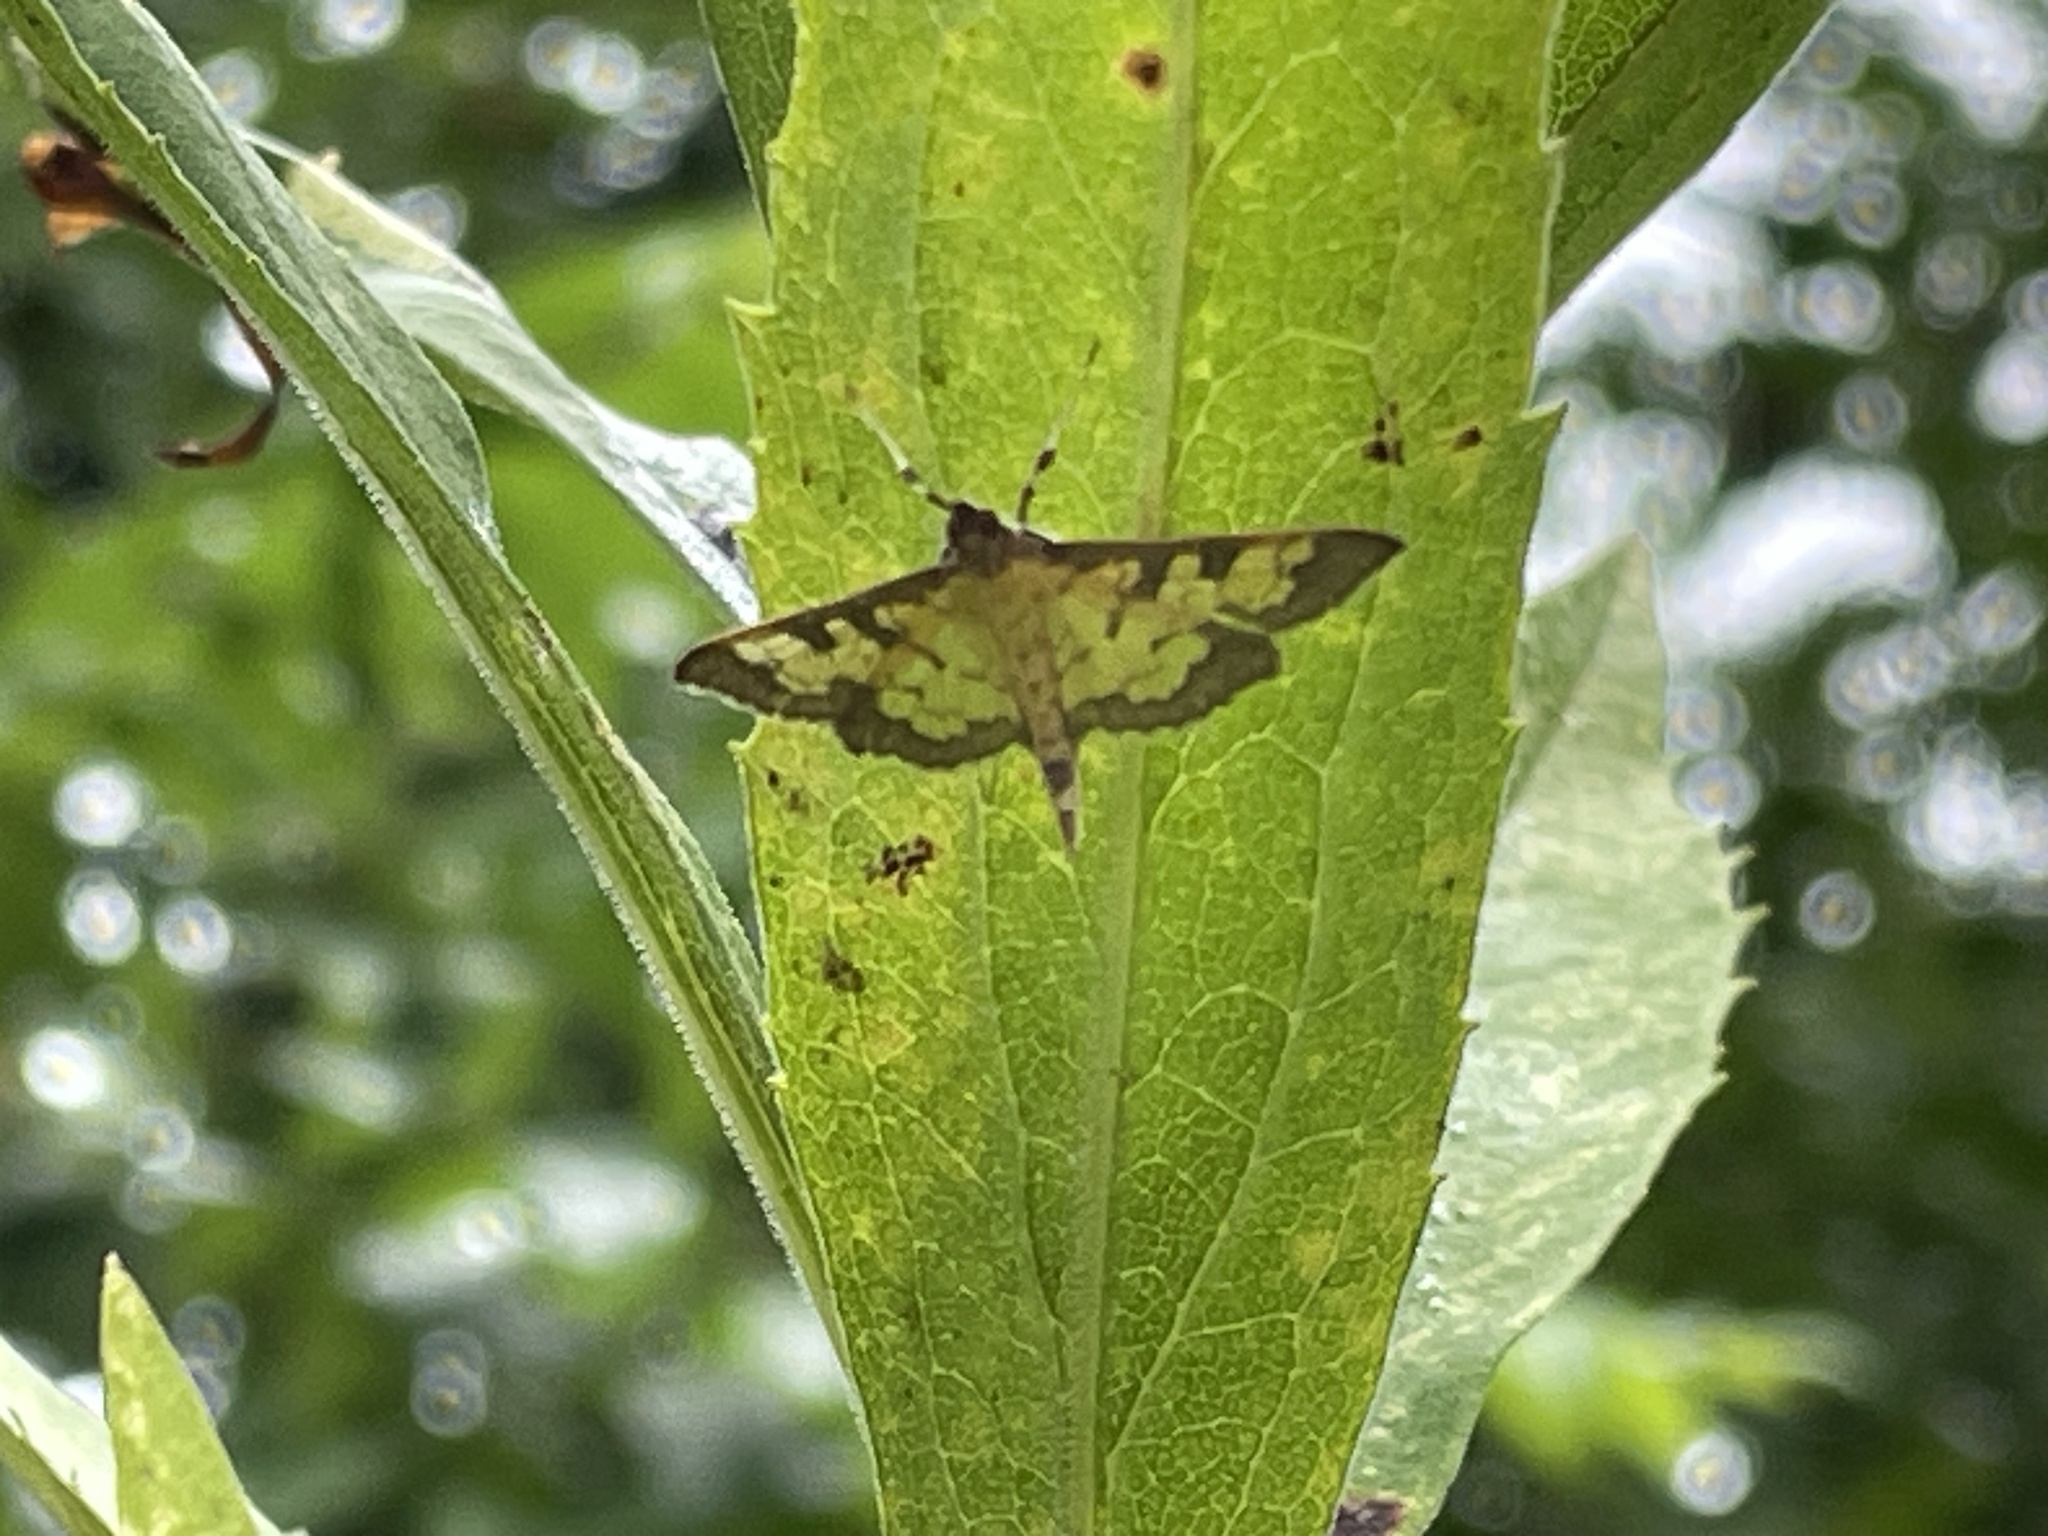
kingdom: Animalia
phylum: Arthropoda
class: Insecta
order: Lepidoptera
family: Crambidae
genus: Epipagis
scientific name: Epipagis adipaloides
